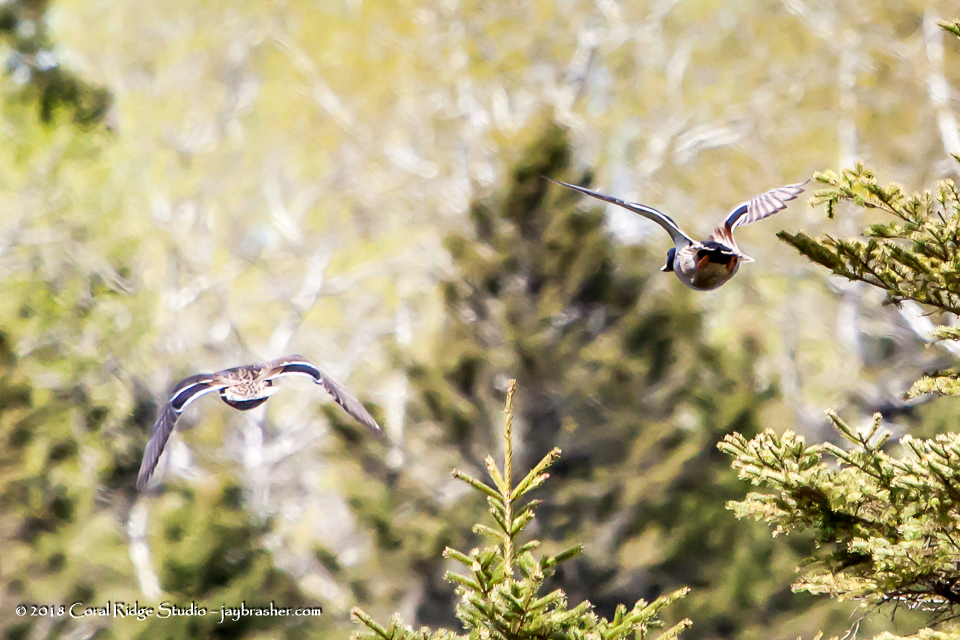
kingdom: Animalia
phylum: Chordata
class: Aves
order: Anseriformes
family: Anatidae
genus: Anas
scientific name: Anas platyrhynchos
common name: Mallard
